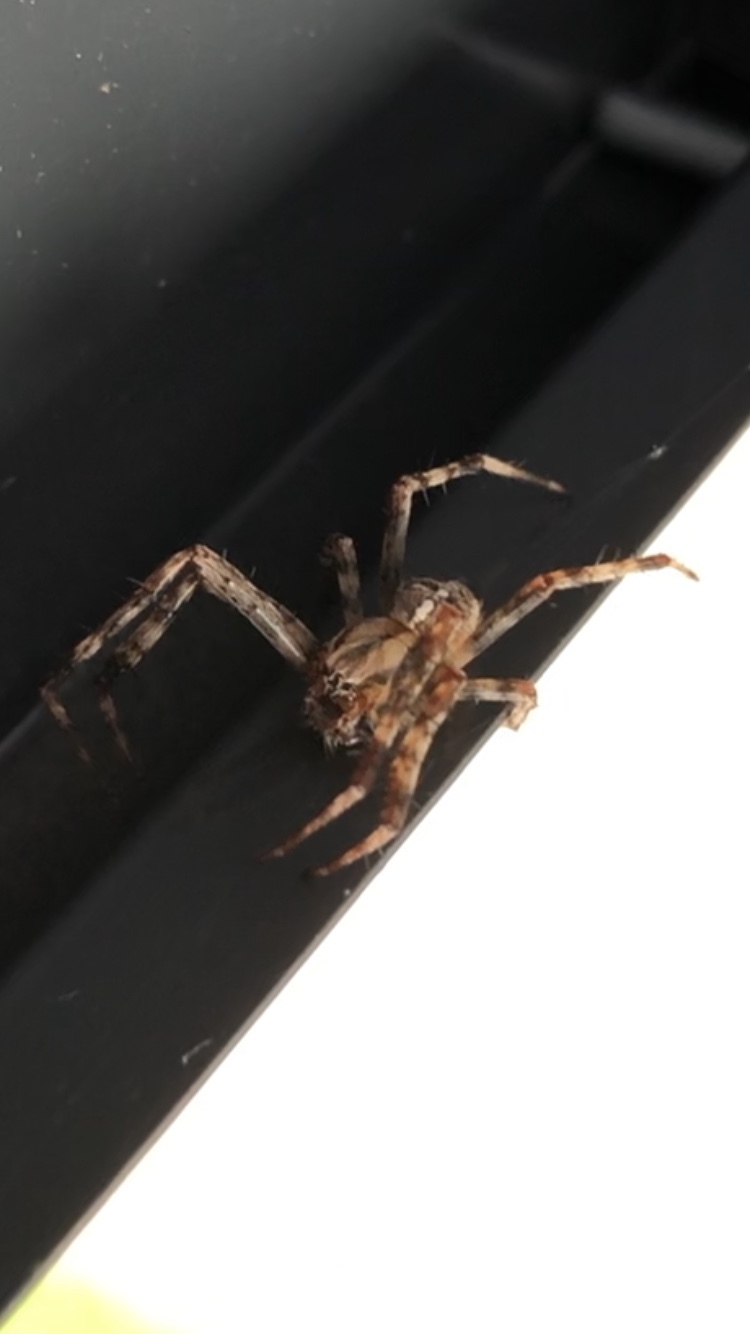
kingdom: Animalia
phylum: Arthropoda
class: Arachnida
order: Araneae
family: Araneidae
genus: Araneus
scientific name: Araneus diadematus
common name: Cross orbweaver
